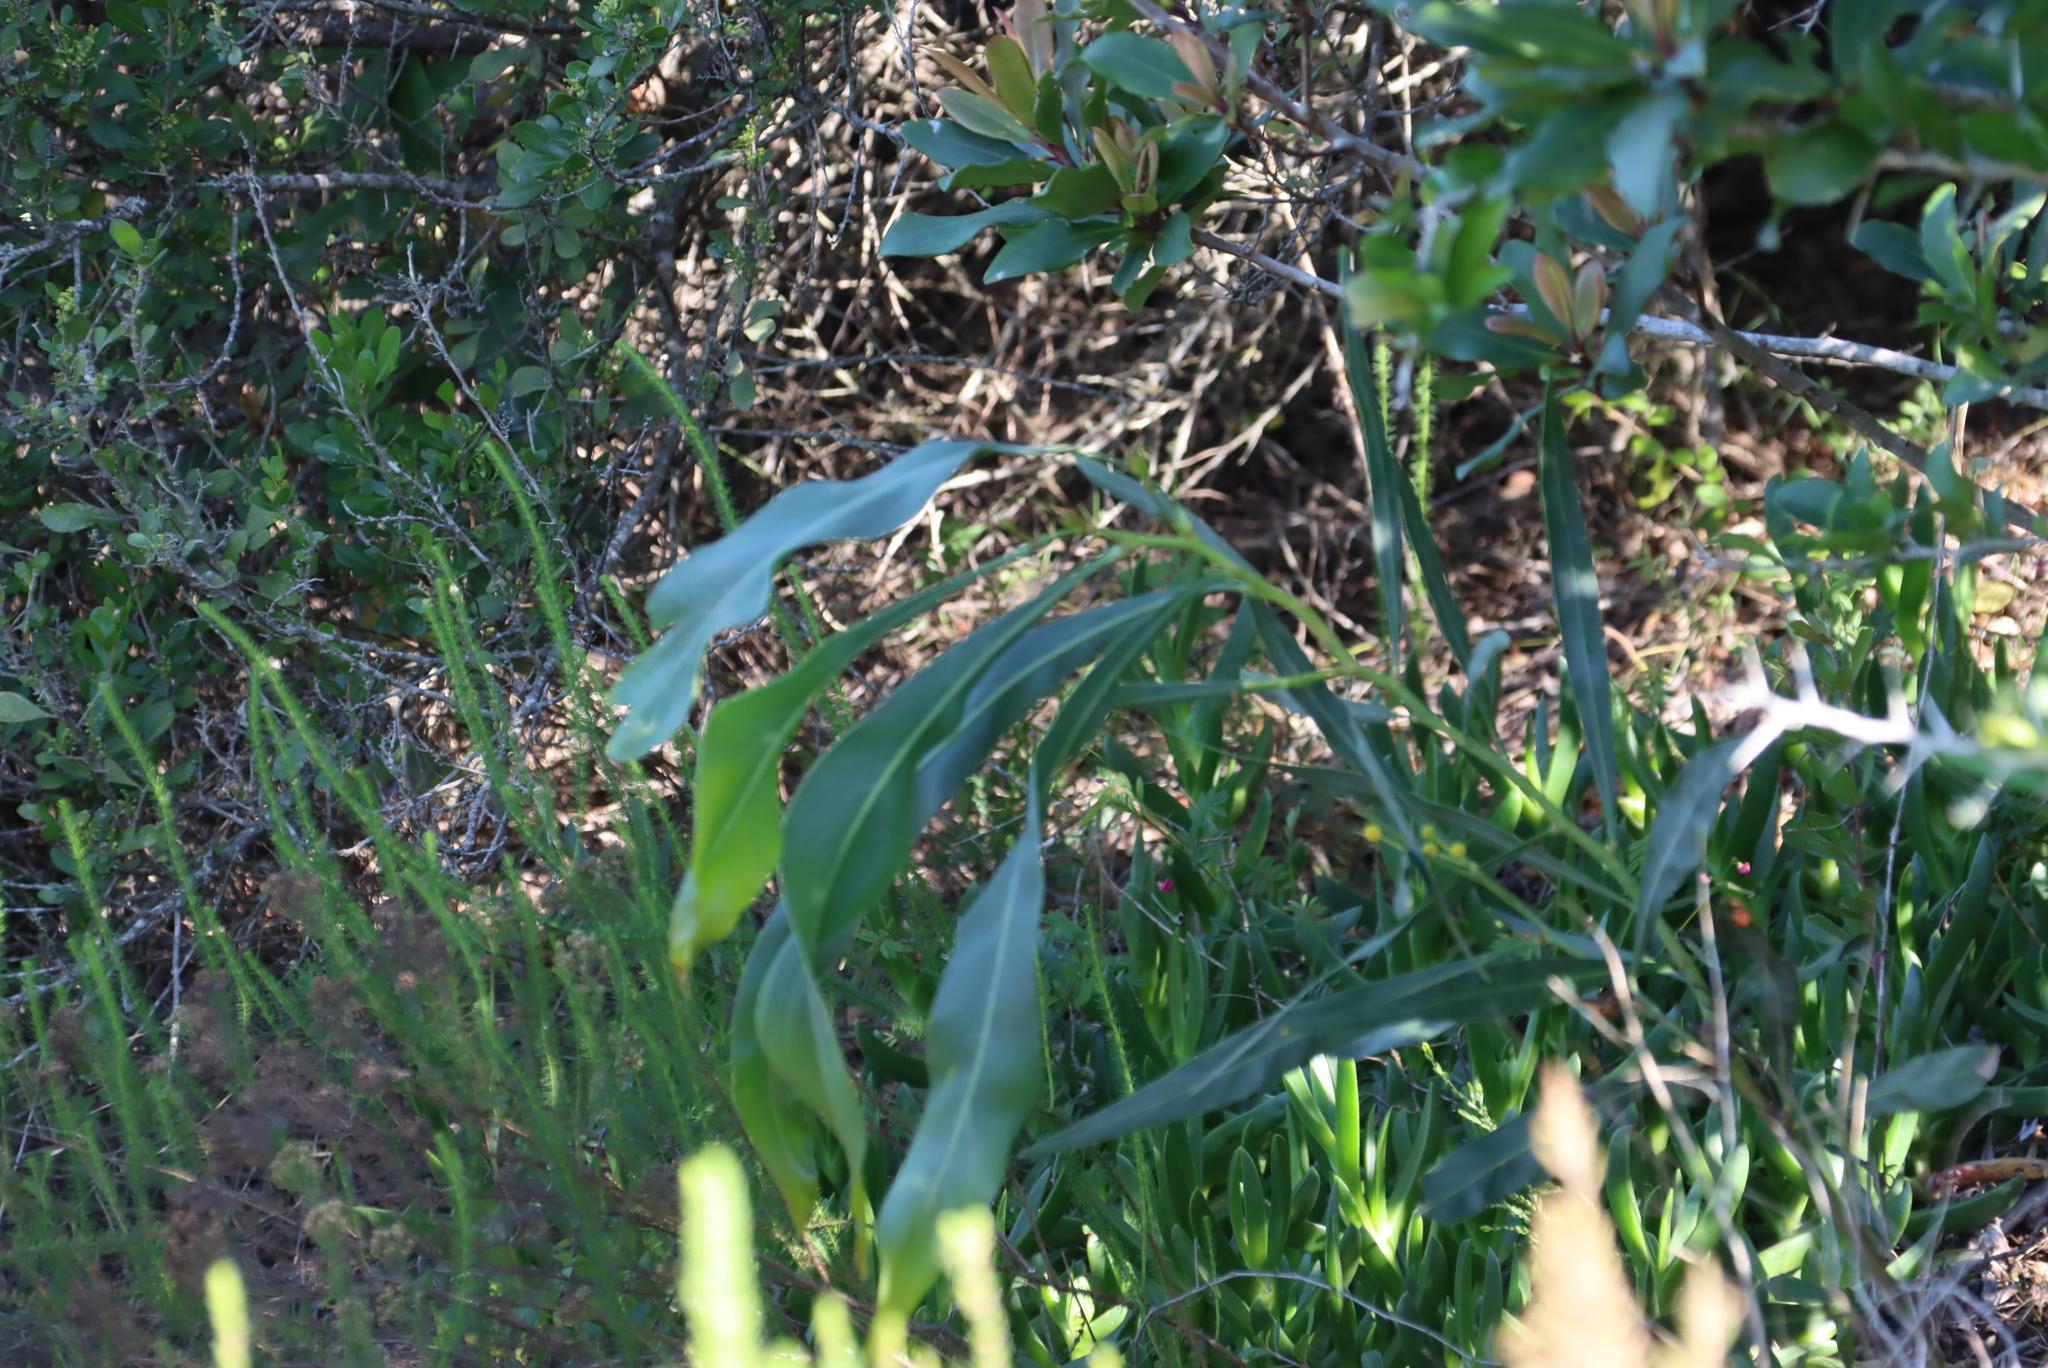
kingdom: Plantae
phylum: Tracheophyta
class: Magnoliopsida
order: Fabales
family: Fabaceae
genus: Acacia
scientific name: Acacia saligna
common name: Orange wattle
